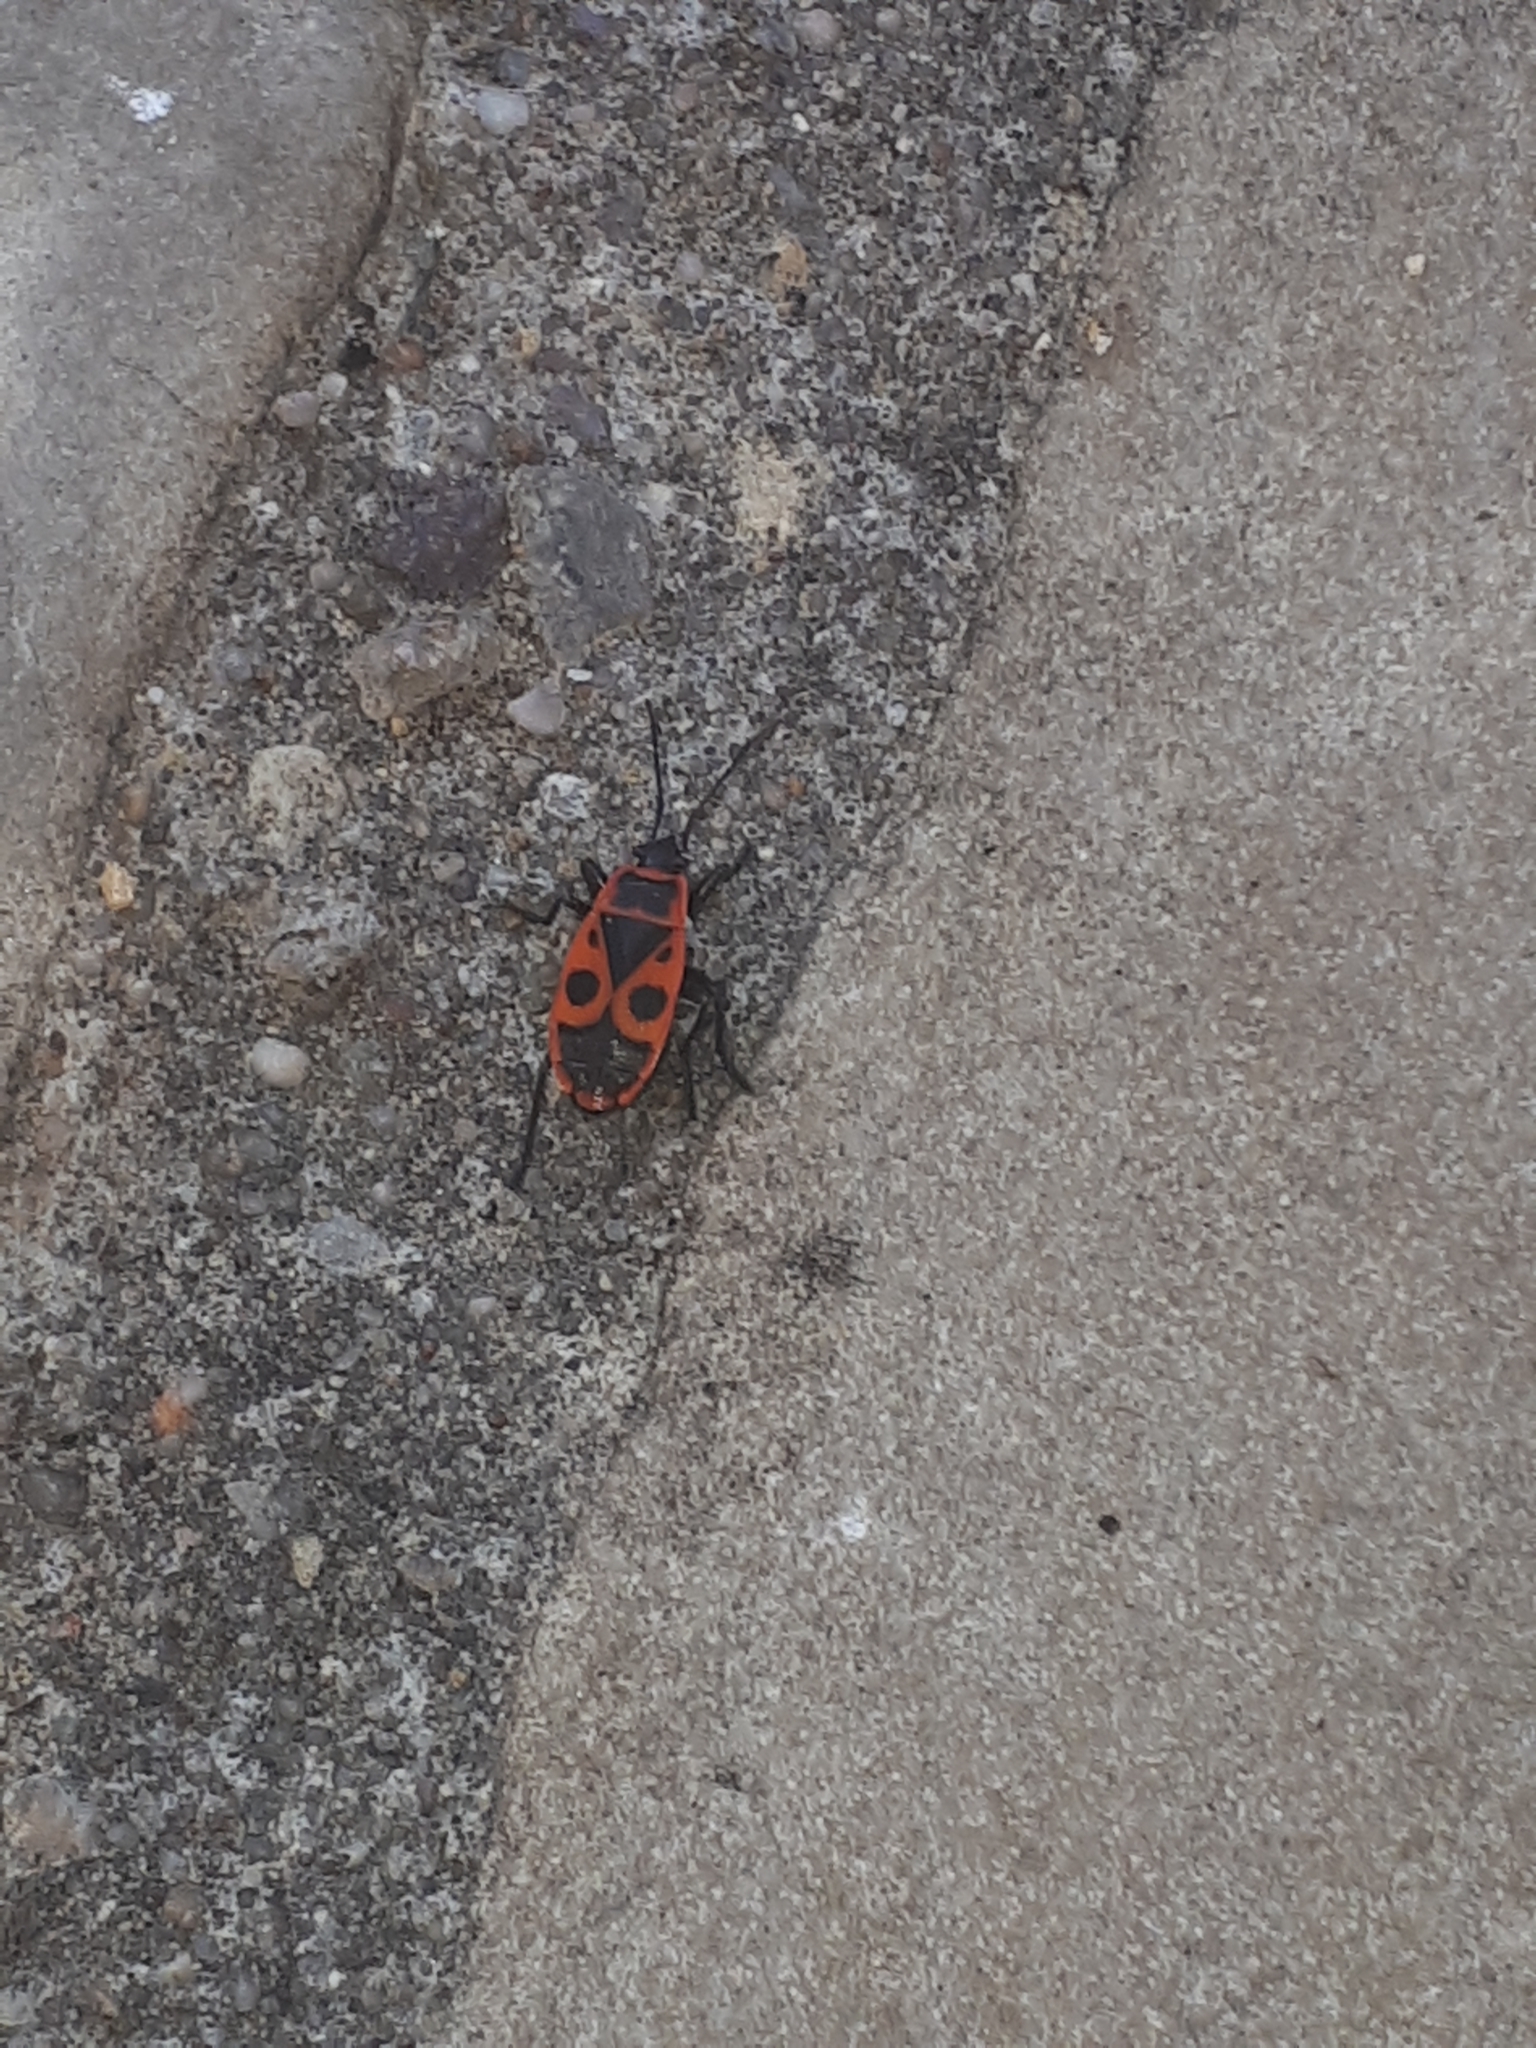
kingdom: Animalia
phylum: Arthropoda
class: Insecta
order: Hemiptera
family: Pyrrhocoridae
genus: Pyrrhocoris
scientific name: Pyrrhocoris apterus
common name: Firebug
